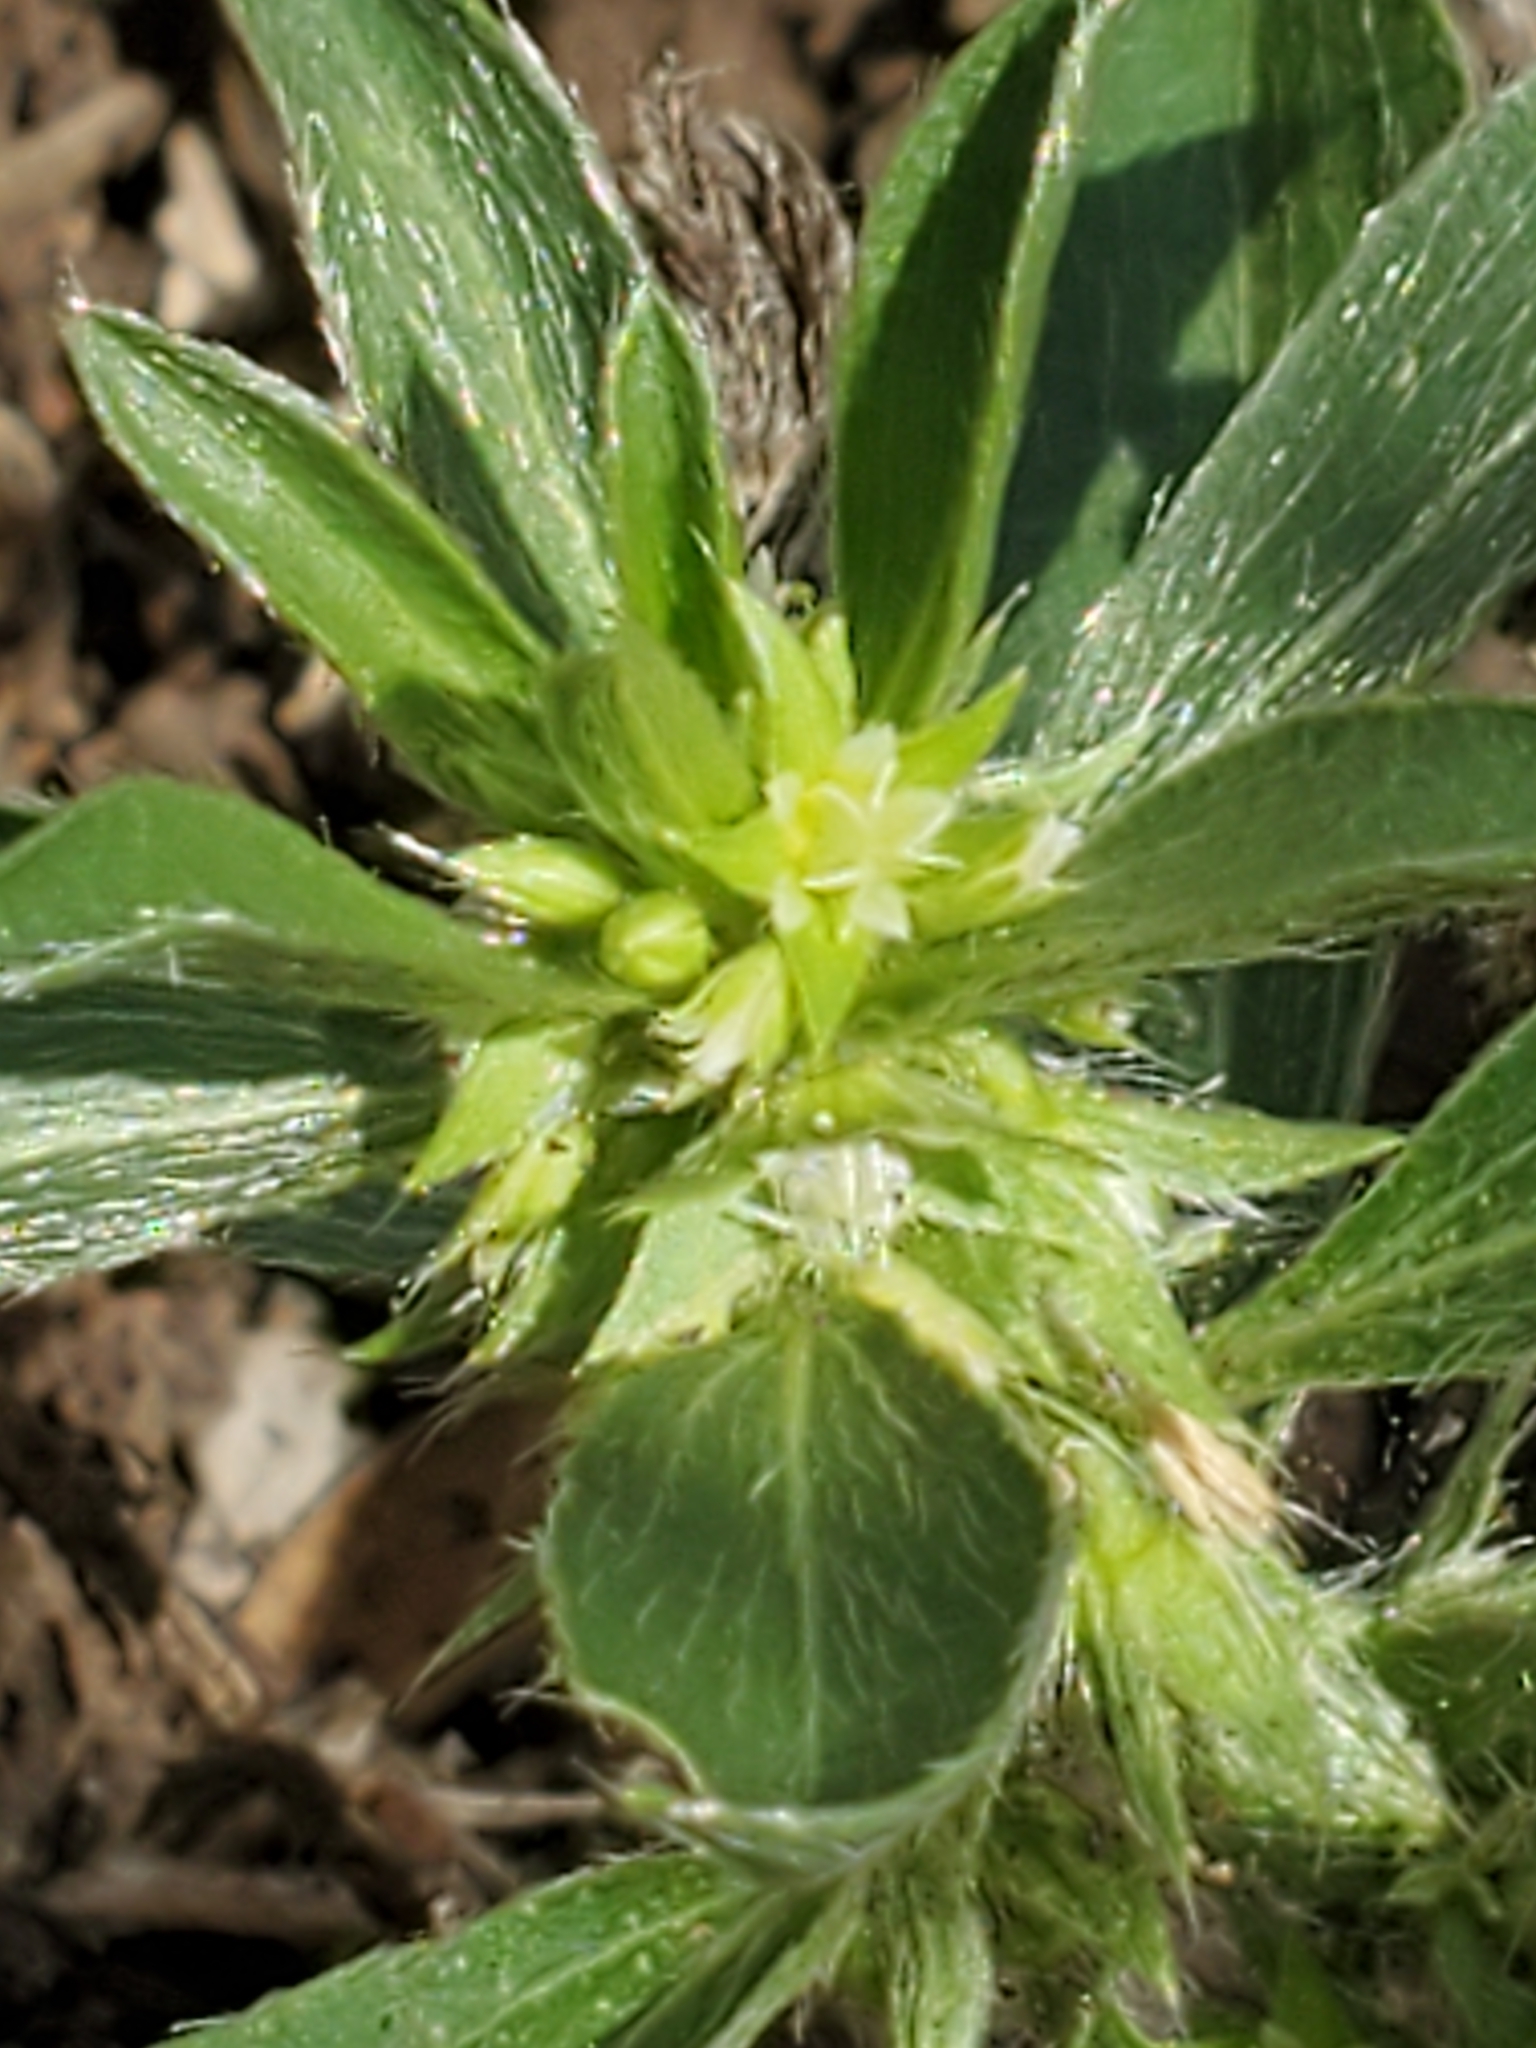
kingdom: Plantae
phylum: Tracheophyta
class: Magnoliopsida
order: Malpighiales
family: Euphorbiaceae
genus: Ditaxis
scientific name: Ditaxis serrata
